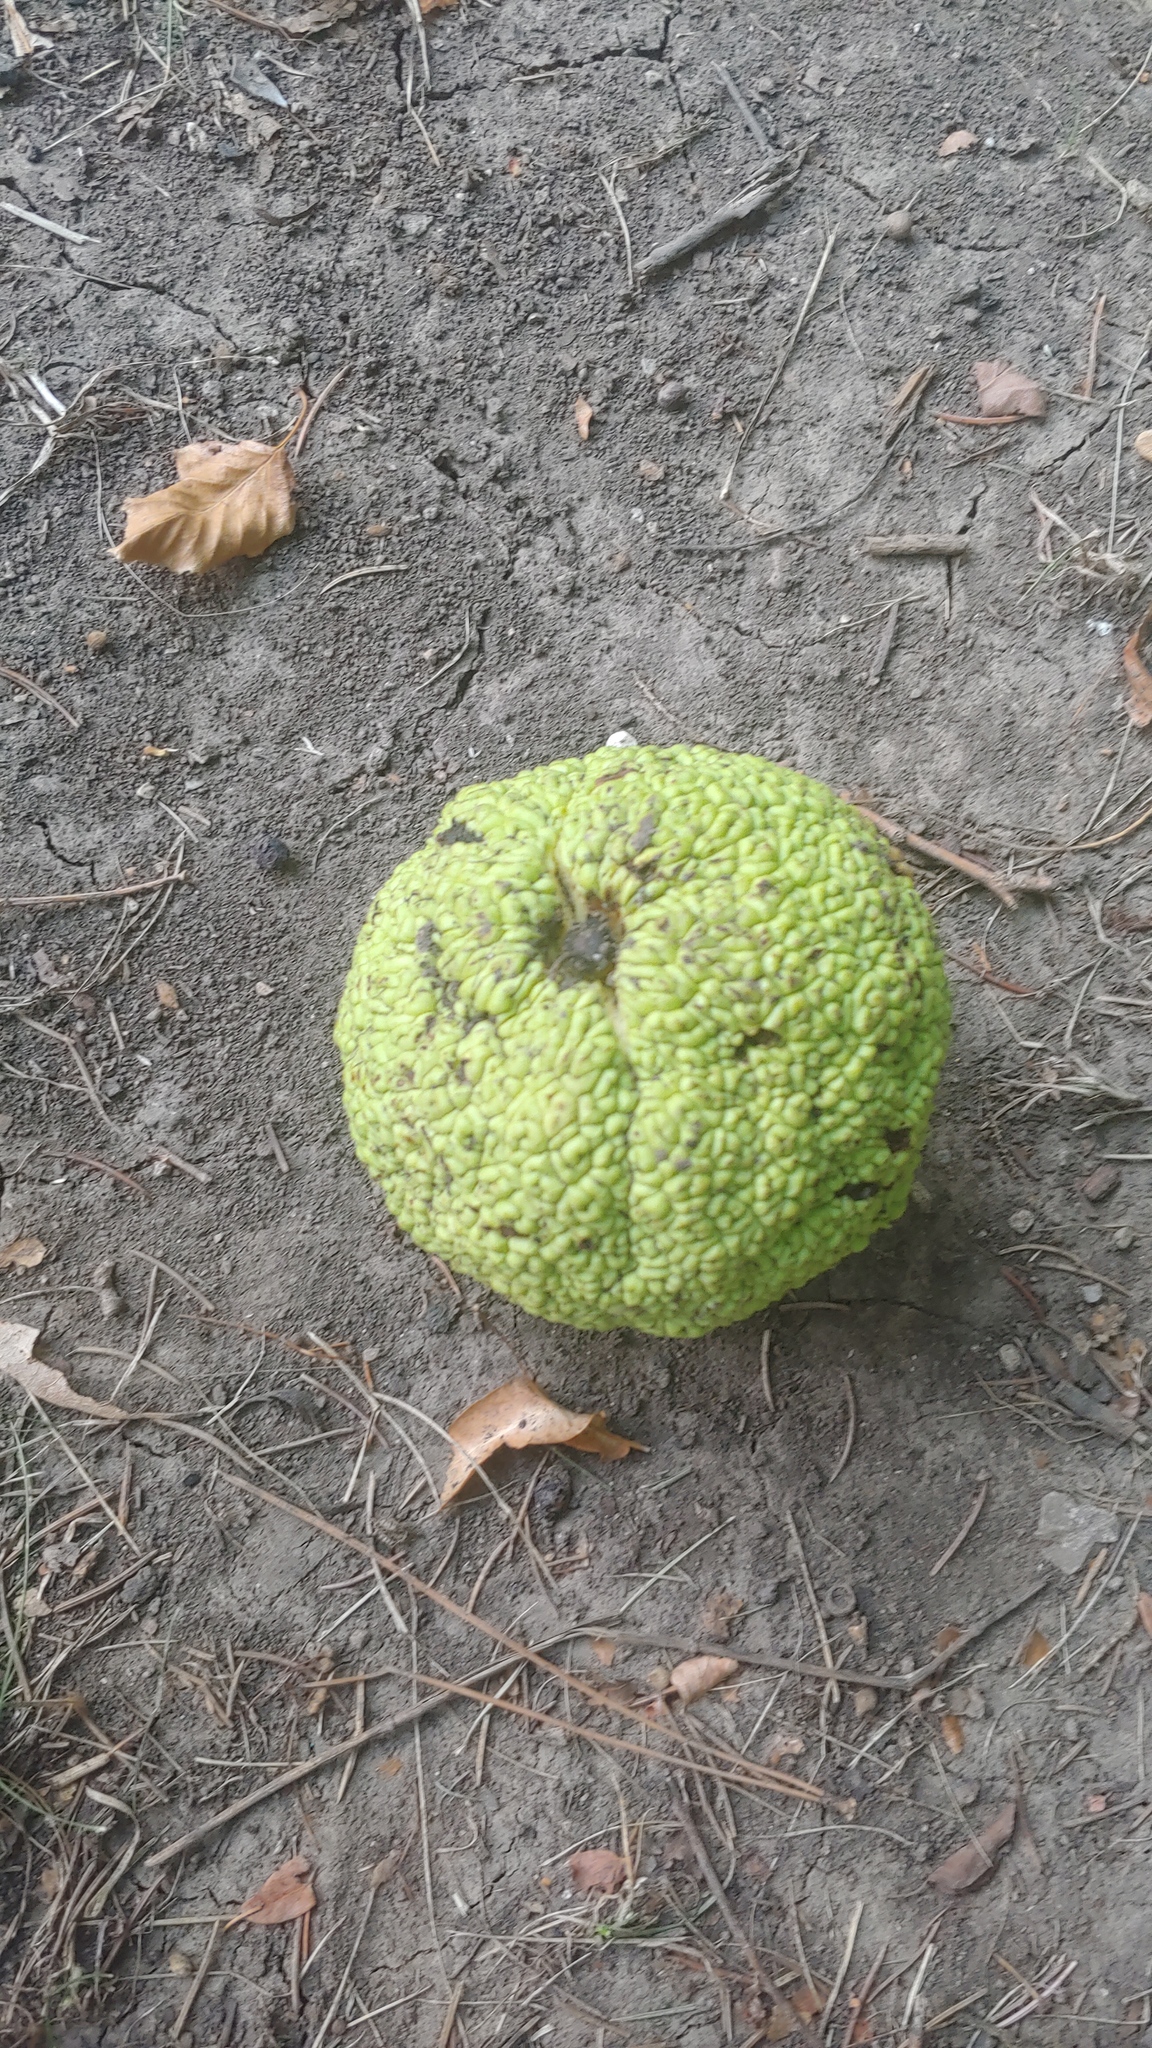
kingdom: Plantae
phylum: Tracheophyta
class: Magnoliopsida
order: Rosales
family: Moraceae
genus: Maclura
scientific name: Maclura pomifera
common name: Osage-orange
